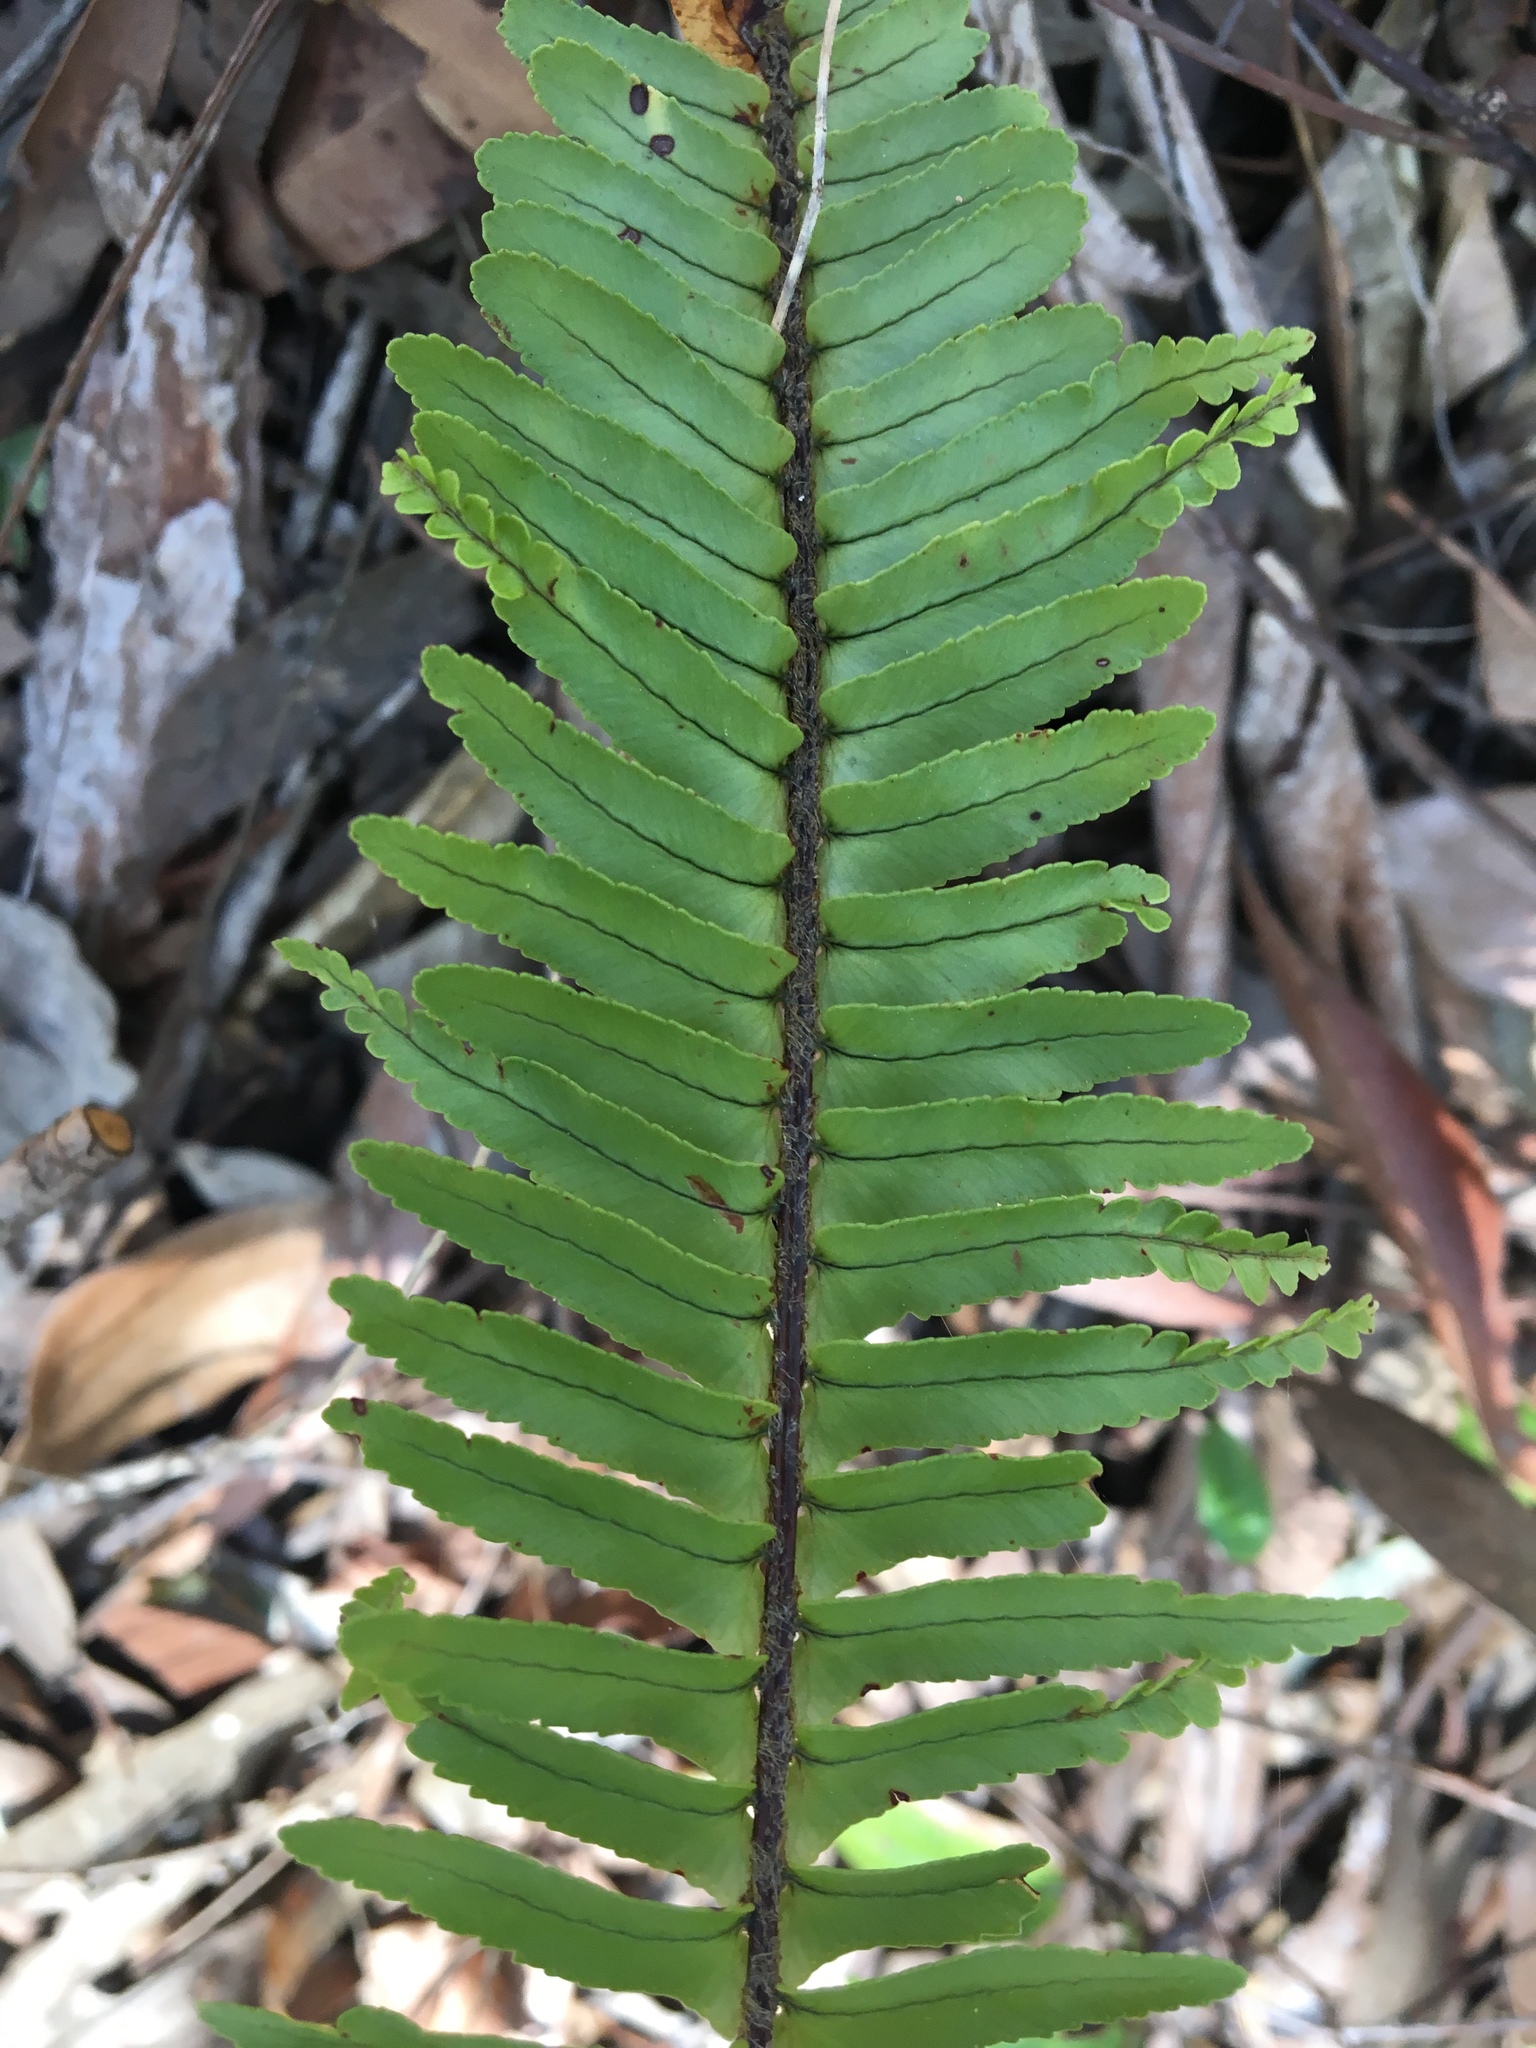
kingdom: Plantae
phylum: Tracheophyta
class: Polypodiopsida
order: Polypodiales
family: Nephrolepidaceae
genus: Nephrolepis
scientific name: Nephrolepis cordifolia
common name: Narrow swordfern
